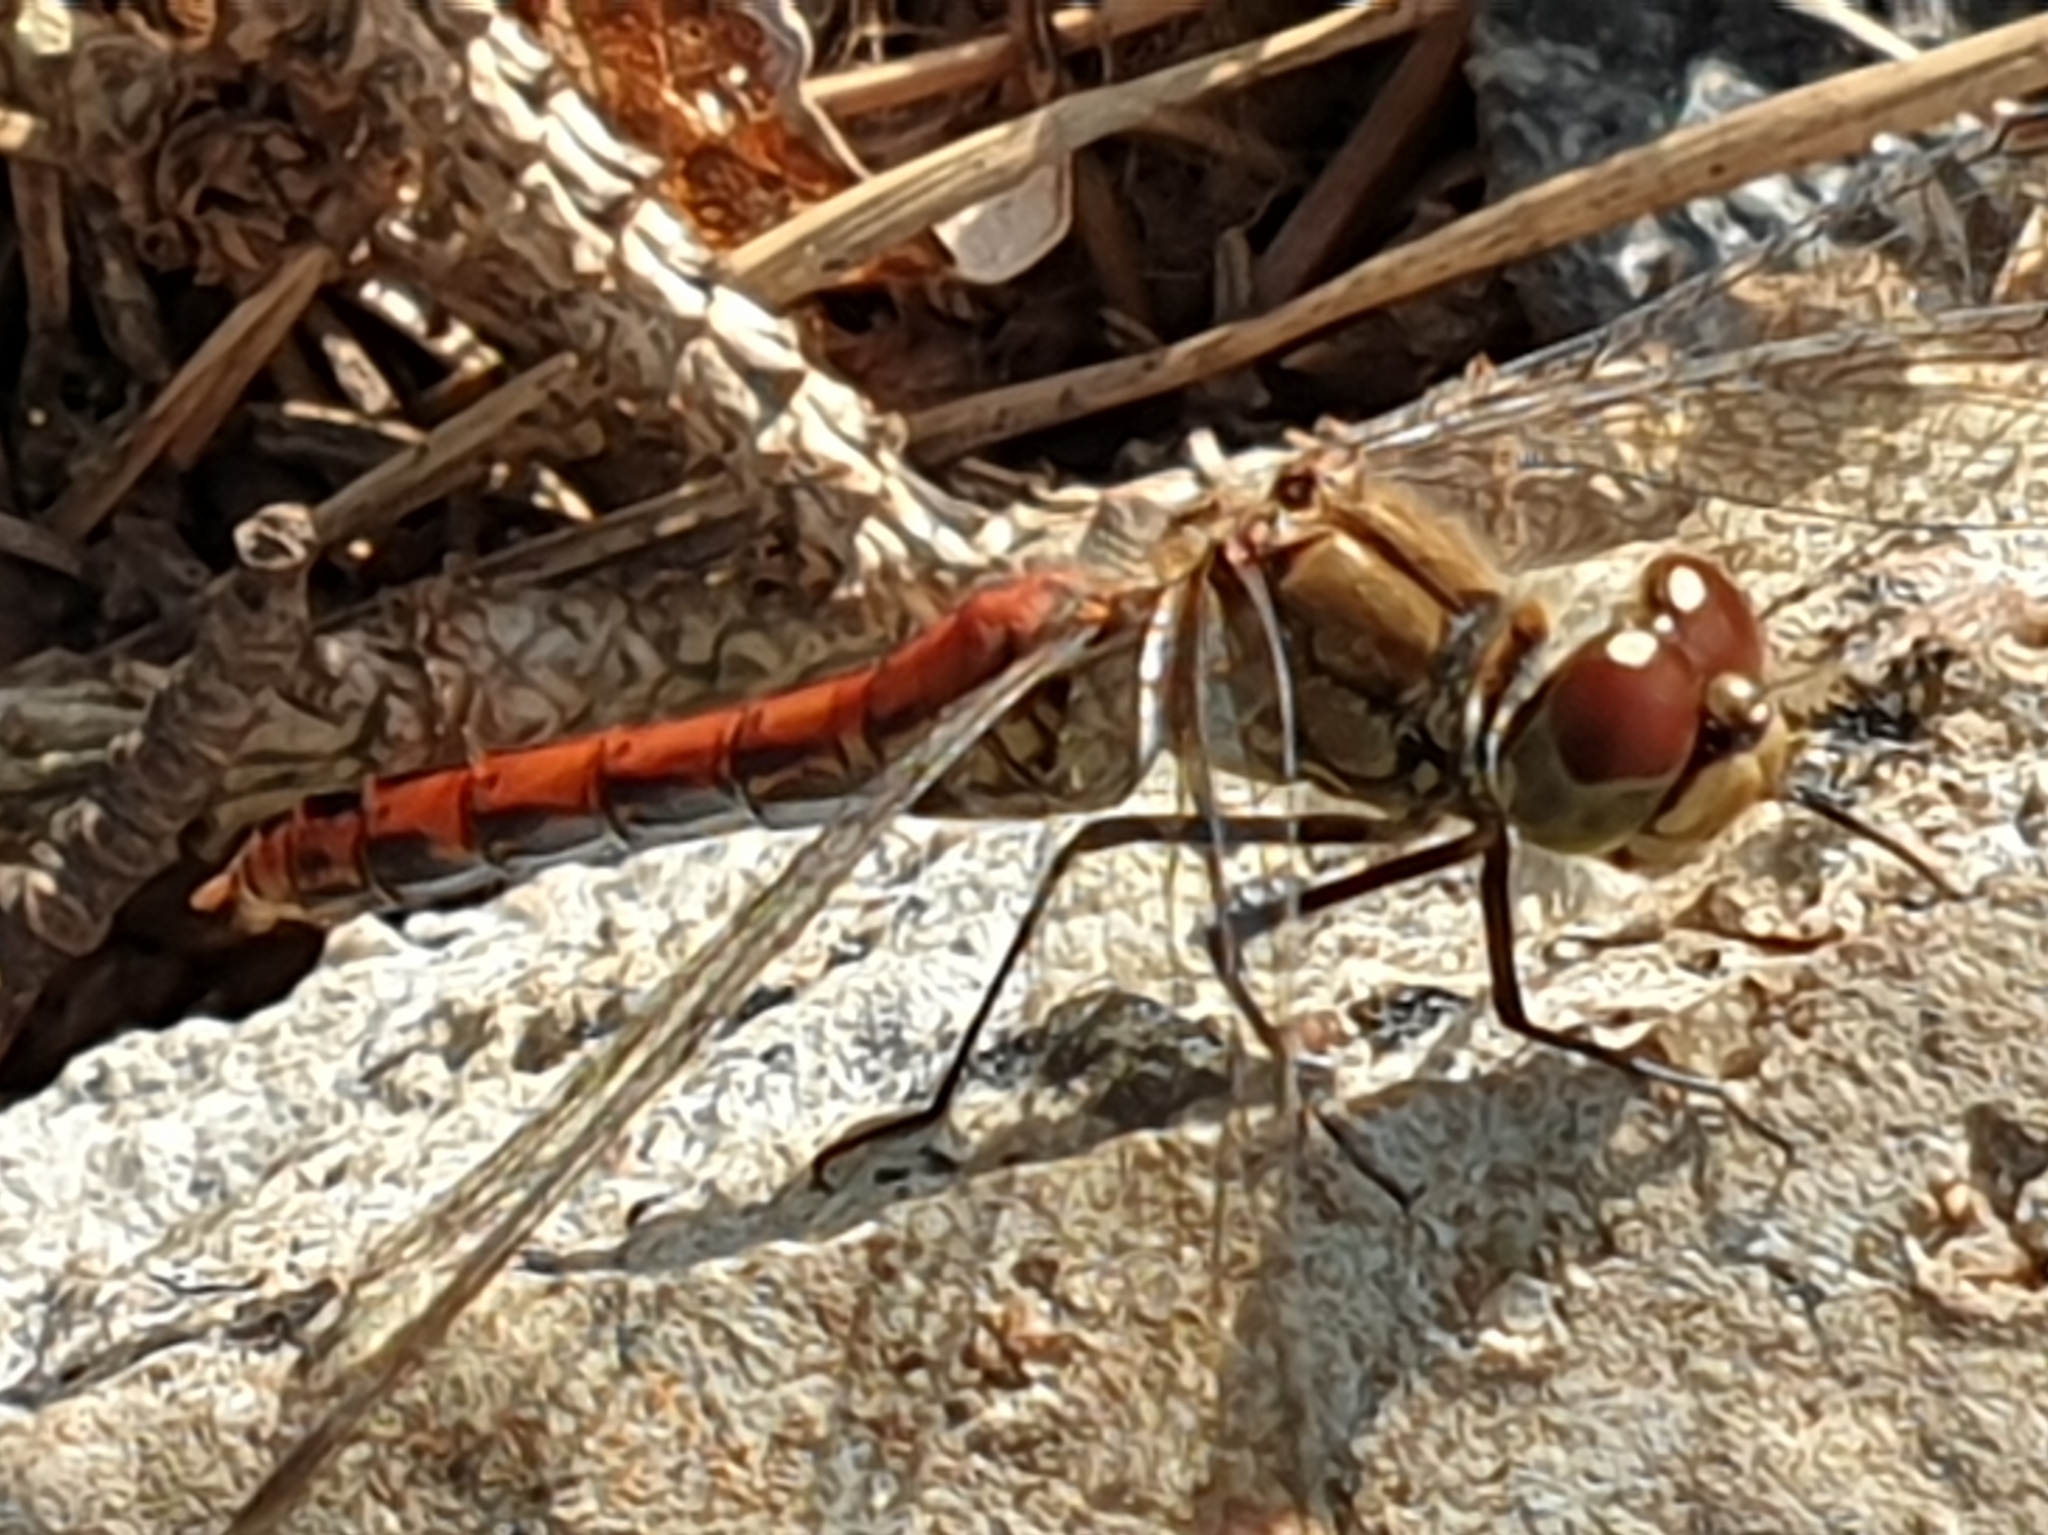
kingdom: Animalia
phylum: Arthropoda
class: Insecta
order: Odonata
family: Libellulidae
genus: Sympetrum
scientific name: Sympetrum vulgatum
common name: Vagrant darter
